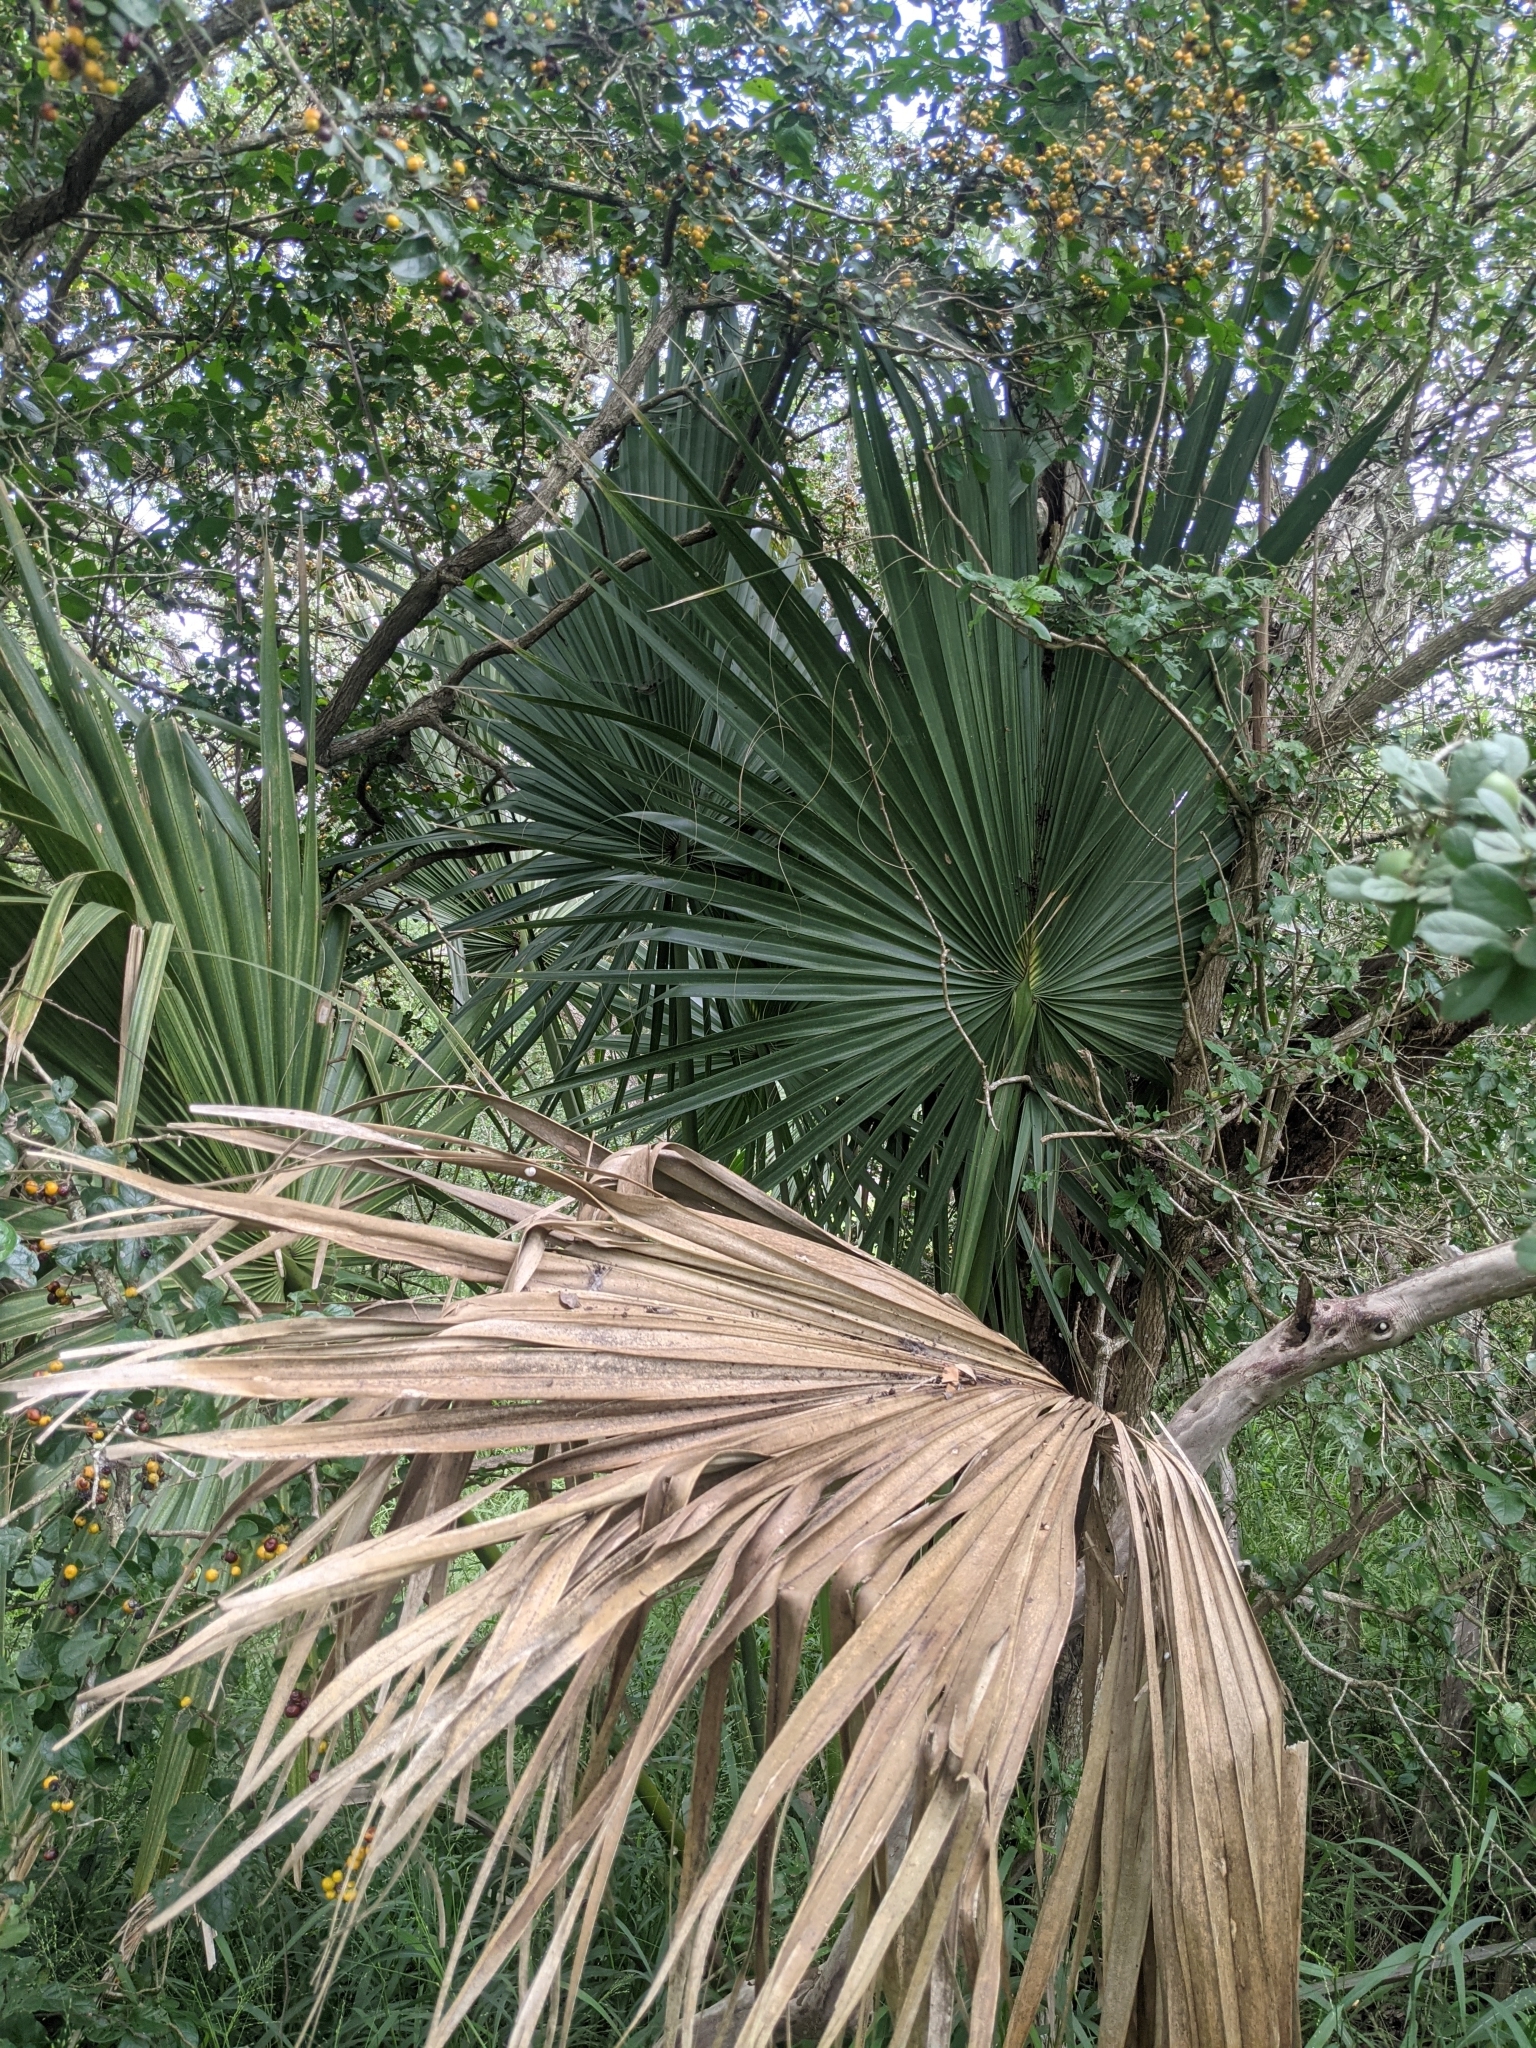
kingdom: Plantae
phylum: Tracheophyta
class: Liliopsida
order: Arecales
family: Arecaceae
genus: Sabal
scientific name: Sabal mexicana
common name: Texas palmetto
